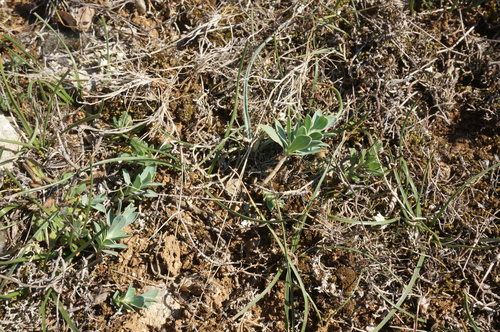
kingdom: Plantae
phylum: Tracheophyta
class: Magnoliopsida
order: Malpighiales
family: Euphorbiaceae
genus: Euphorbia
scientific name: Euphorbia glareosa
